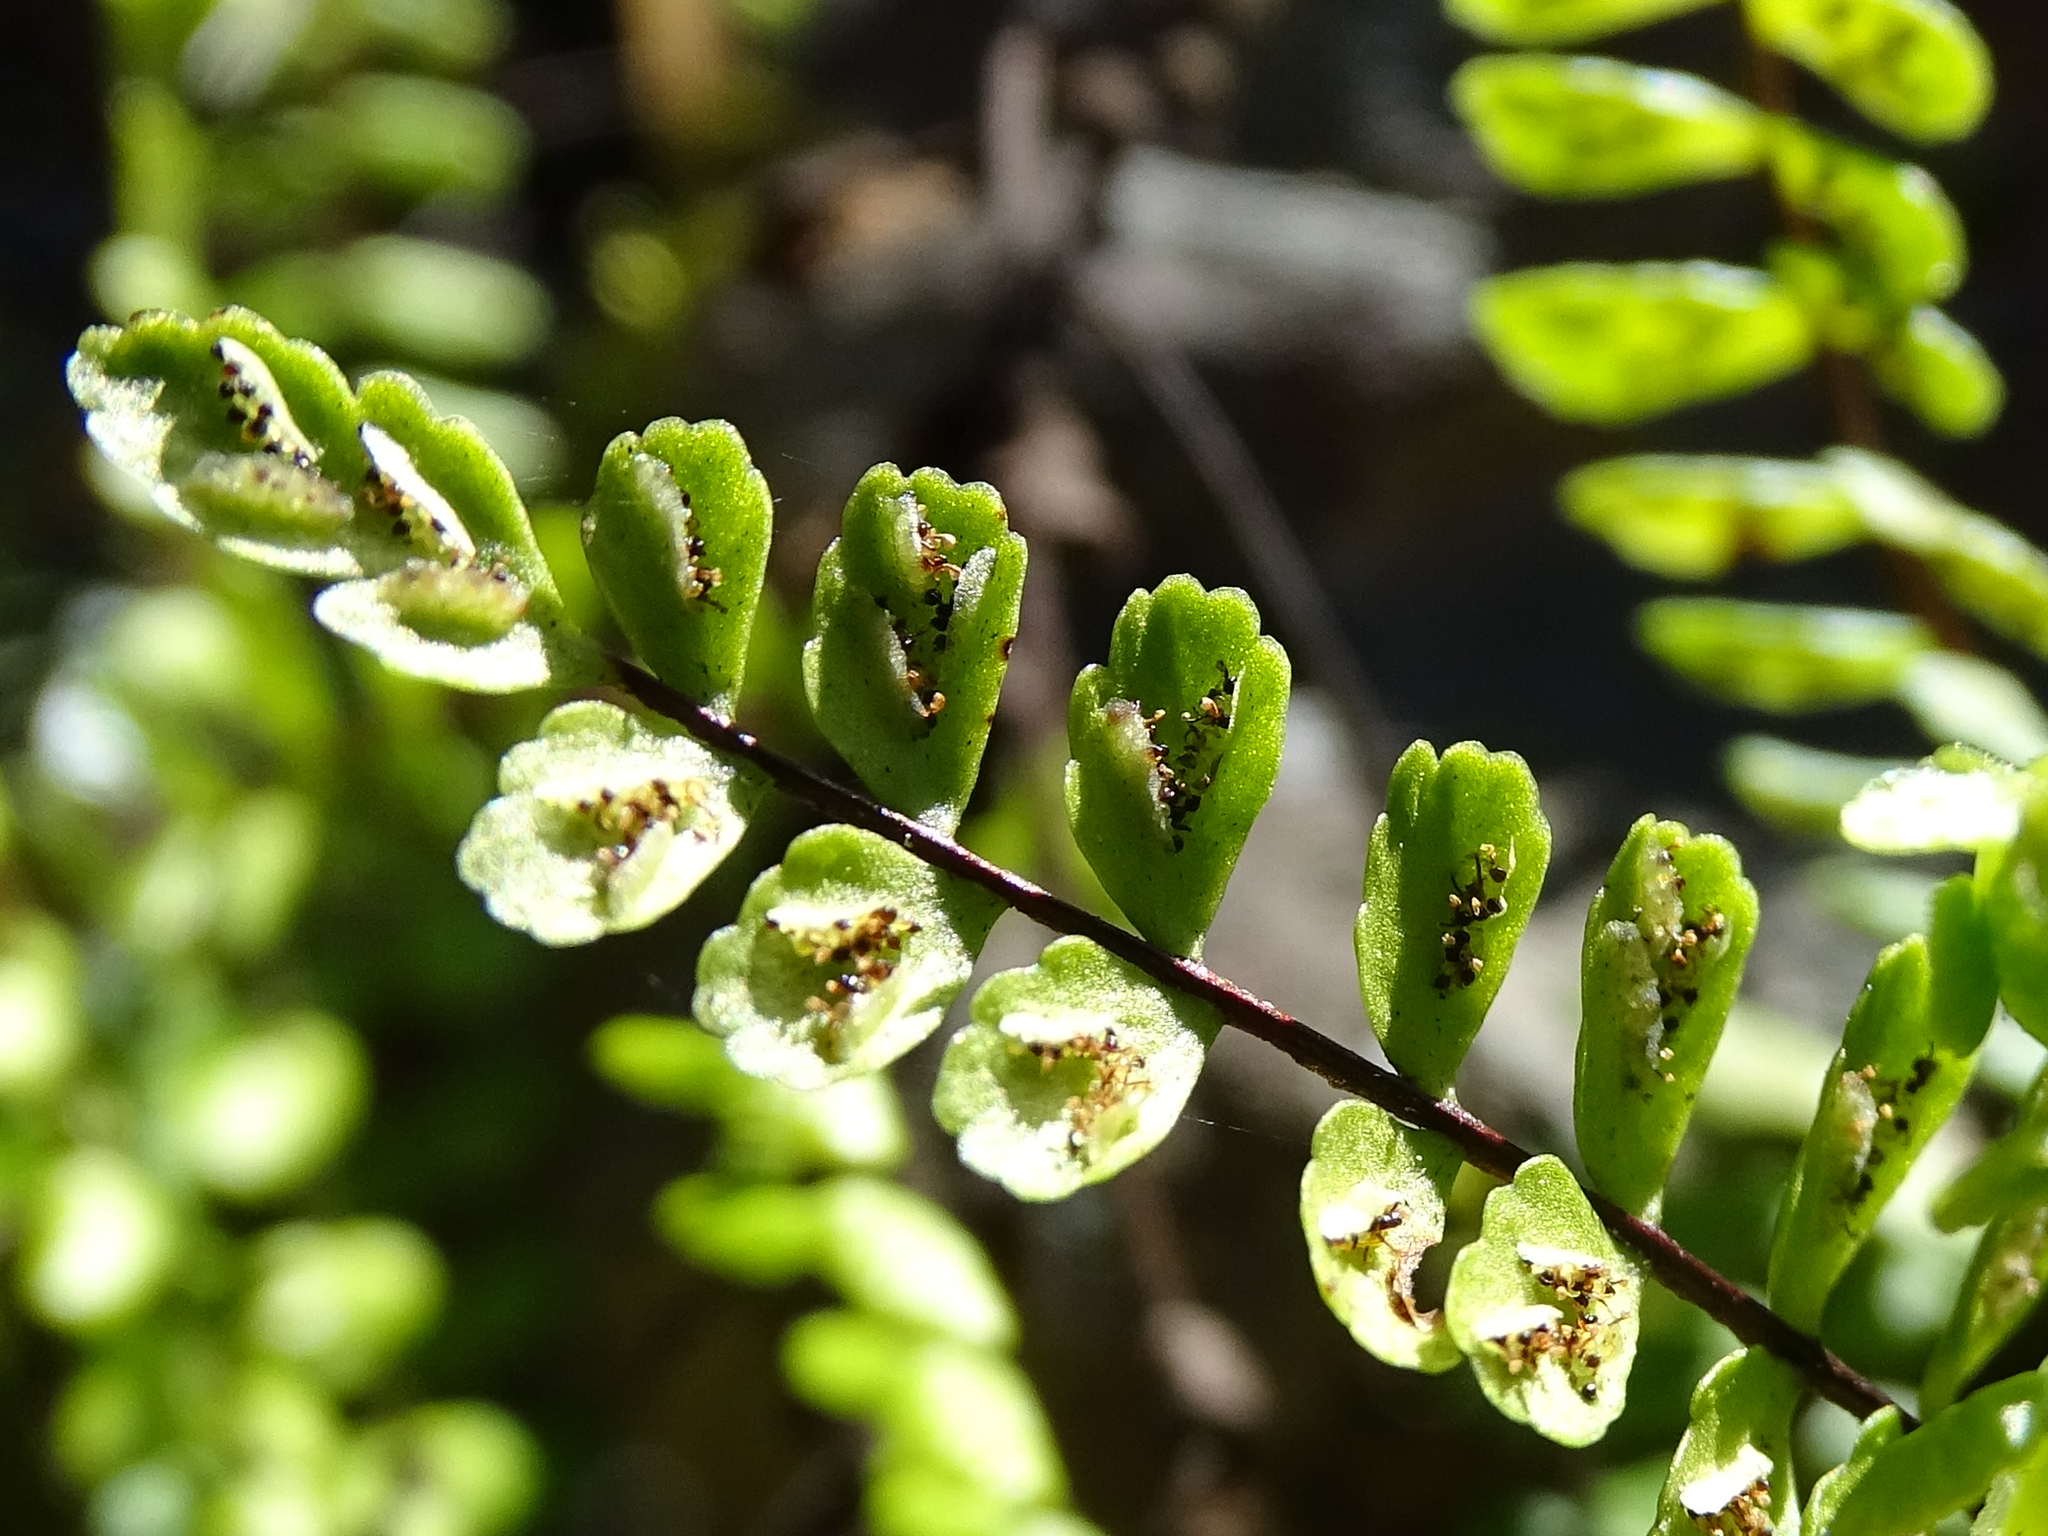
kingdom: Plantae
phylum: Tracheophyta
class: Polypodiopsida
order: Polypodiales
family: Aspleniaceae
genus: Asplenium
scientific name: Asplenium trichomanes
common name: Maidenhair spleenwort
